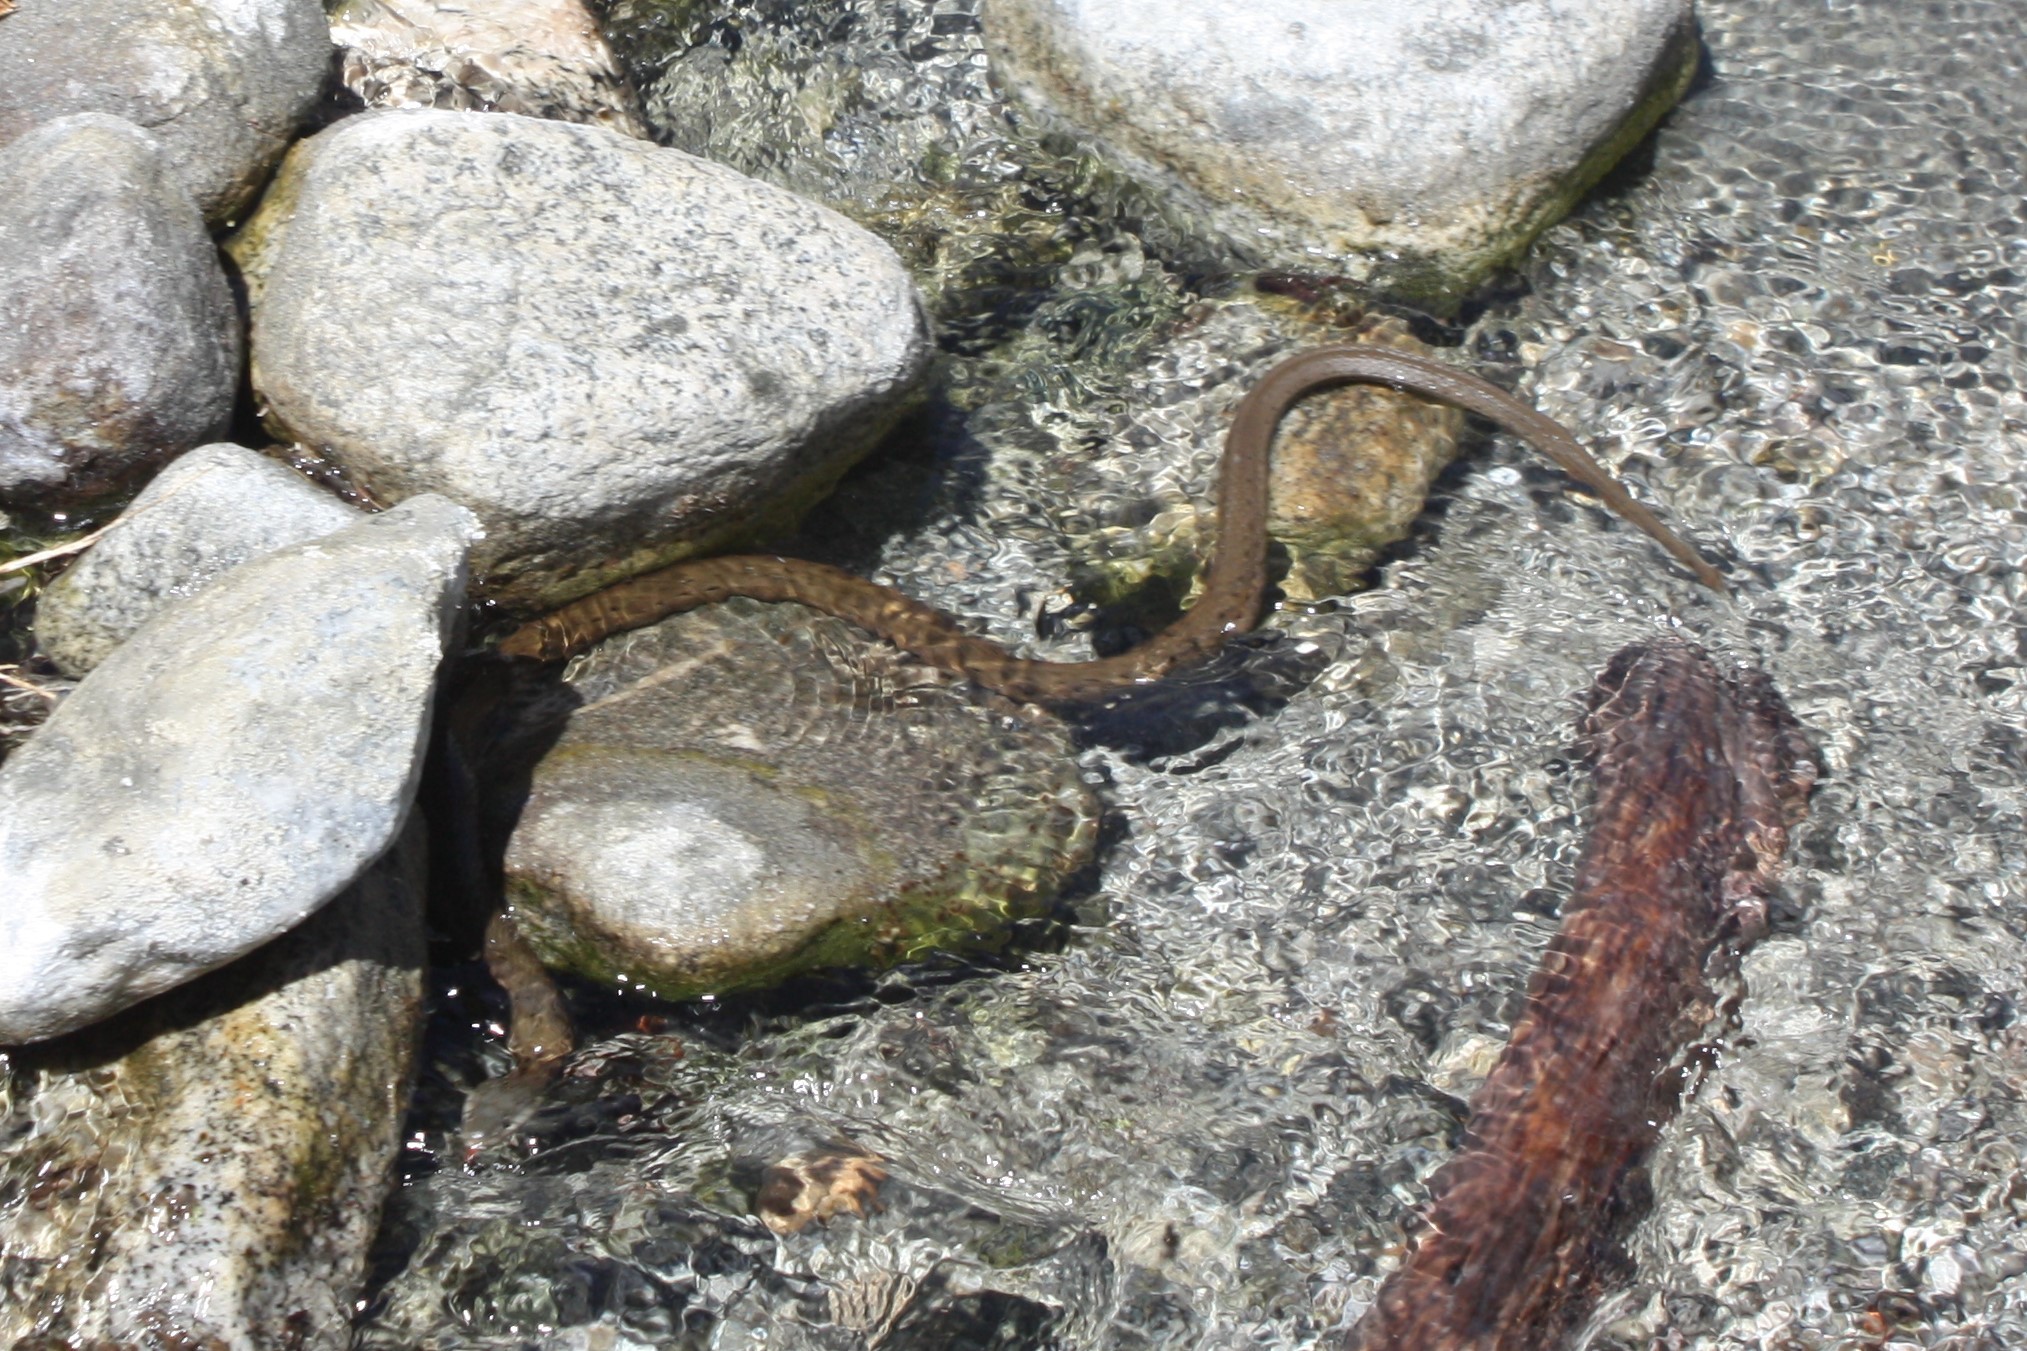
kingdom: Animalia
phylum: Chordata
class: Squamata
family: Colubridae
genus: Thamnophis
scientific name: Thamnophis hammondii
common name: Two-striped garter snake
